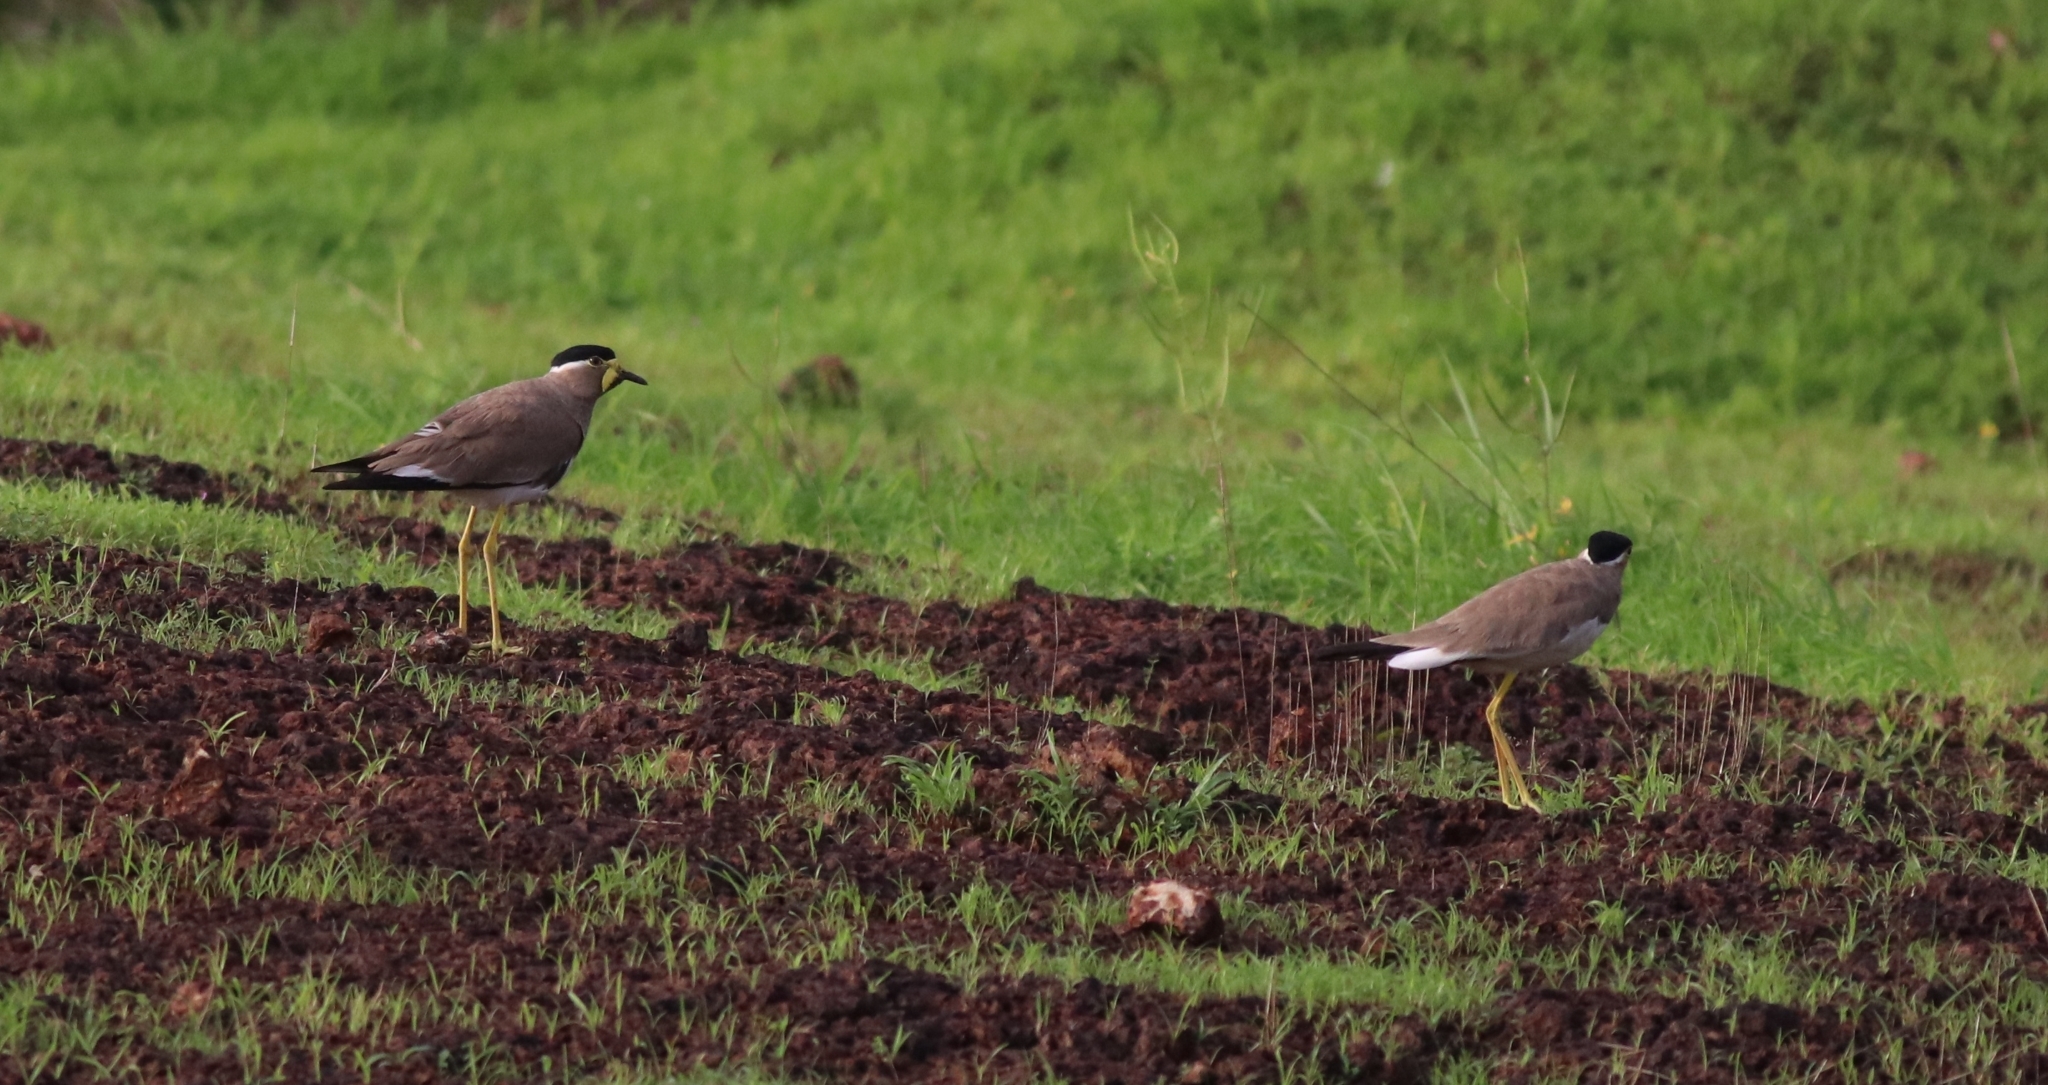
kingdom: Animalia
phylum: Chordata
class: Aves
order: Charadriiformes
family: Charadriidae
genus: Vanellus
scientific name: Vanellus malabaricus
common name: Yellow-wattled lapwing
